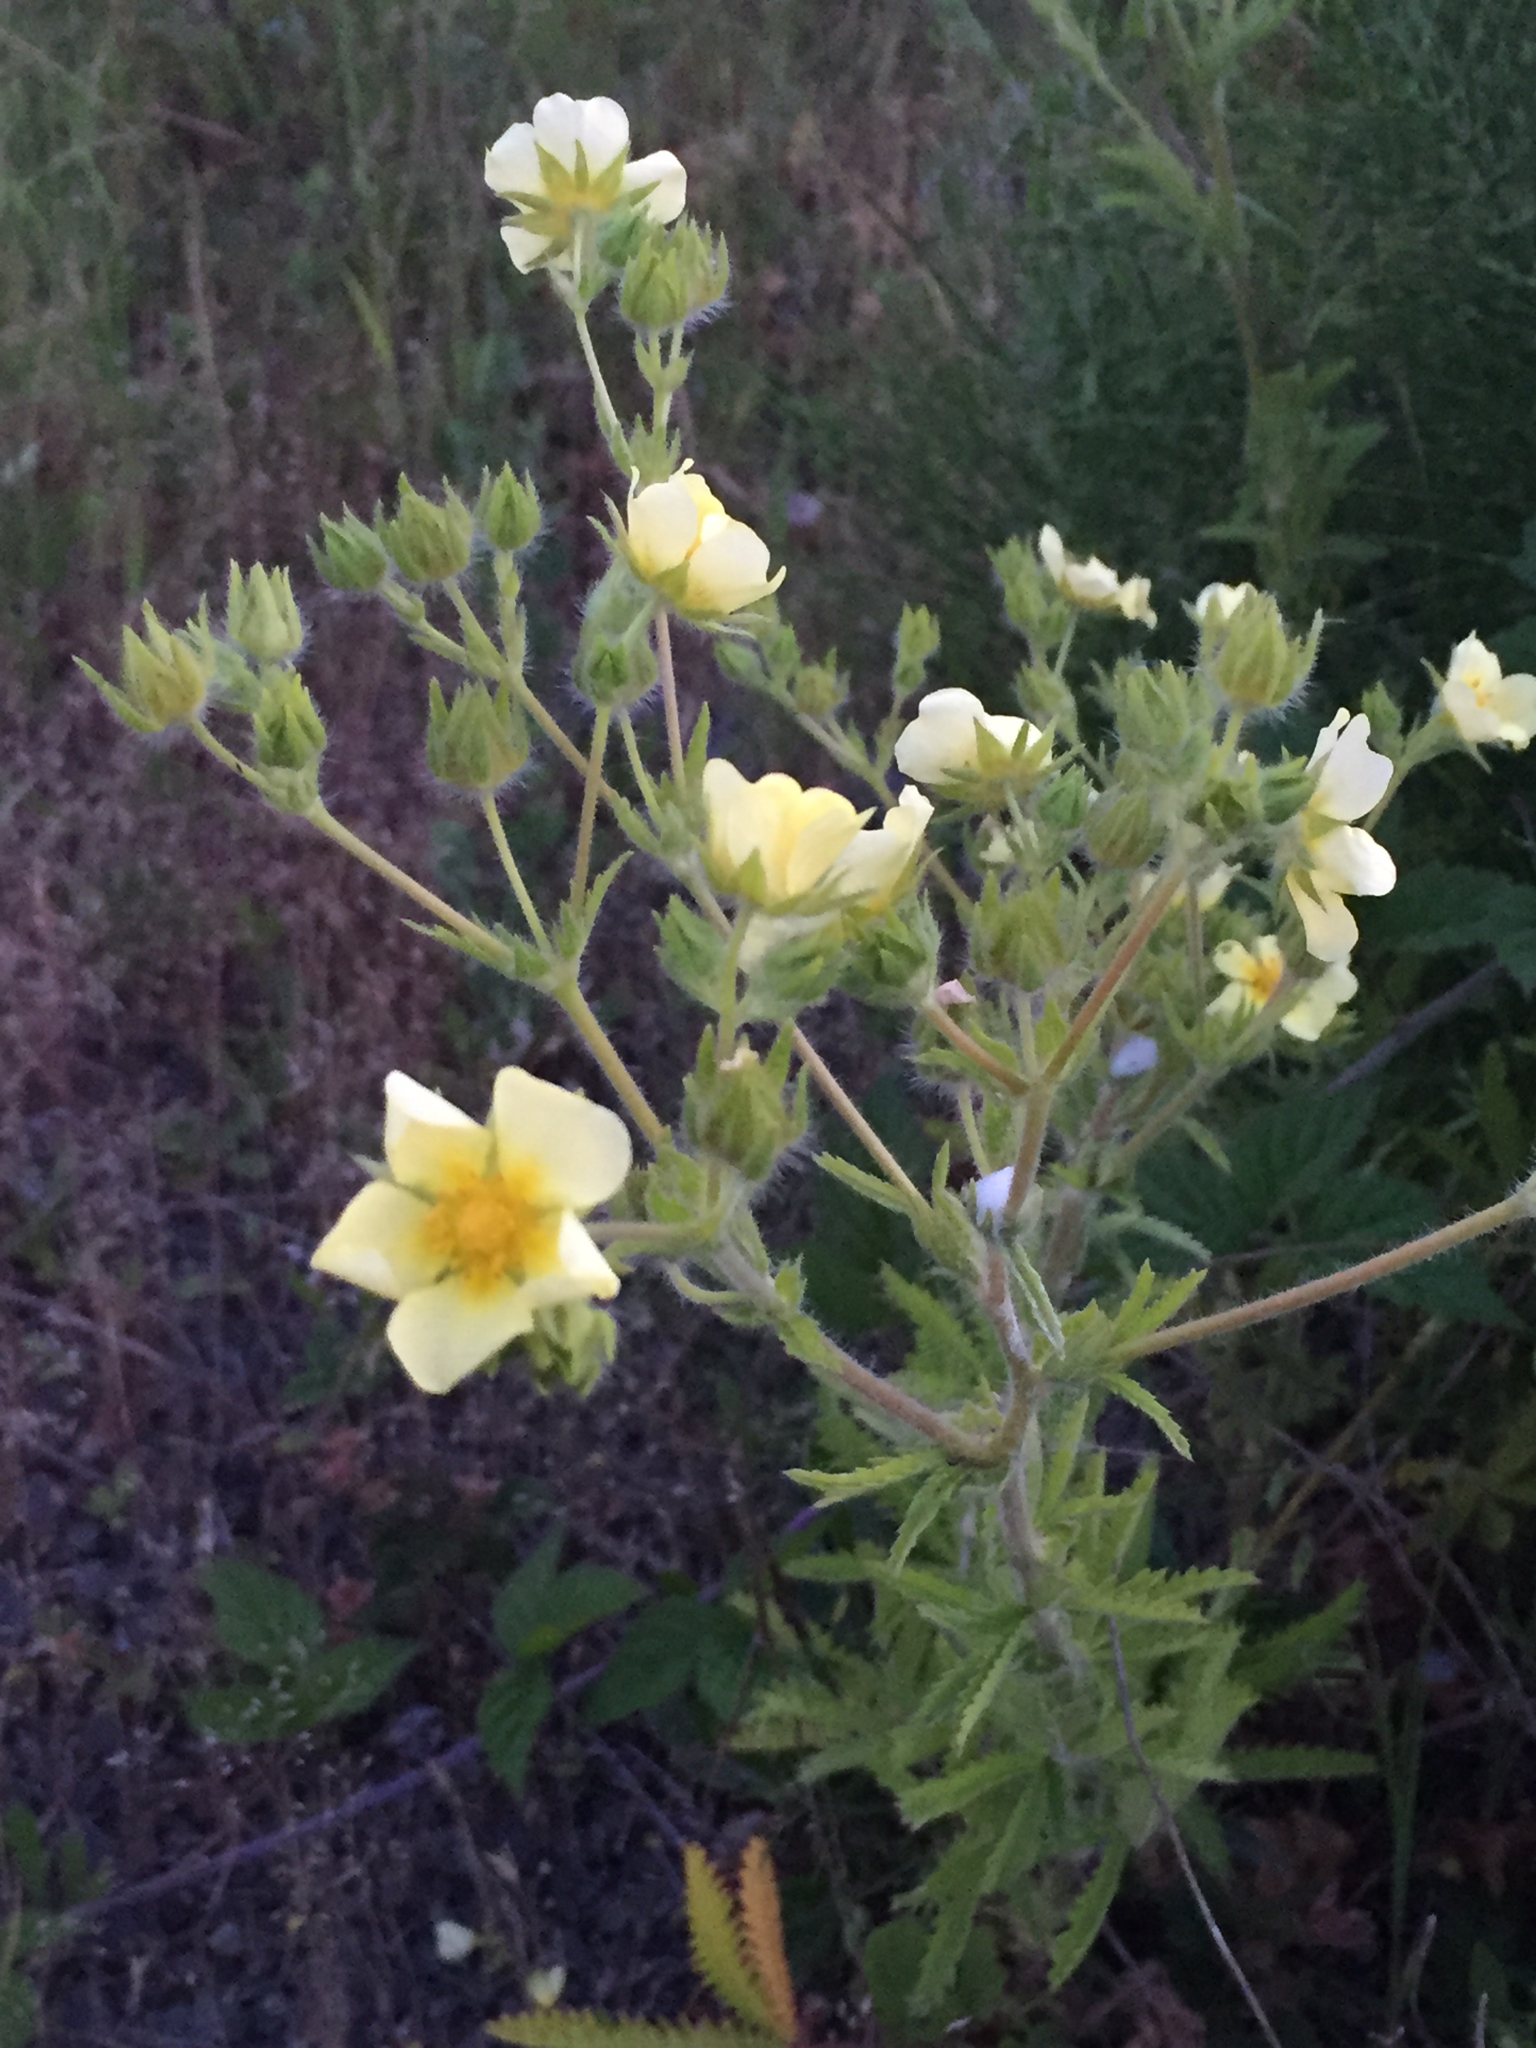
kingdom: Plantae
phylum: Tracheophyta
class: Magnoliopsida
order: Rosales
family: Rosaceae
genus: Potentilla
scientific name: Potentilla recta
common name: Sulphur cinquefoil
